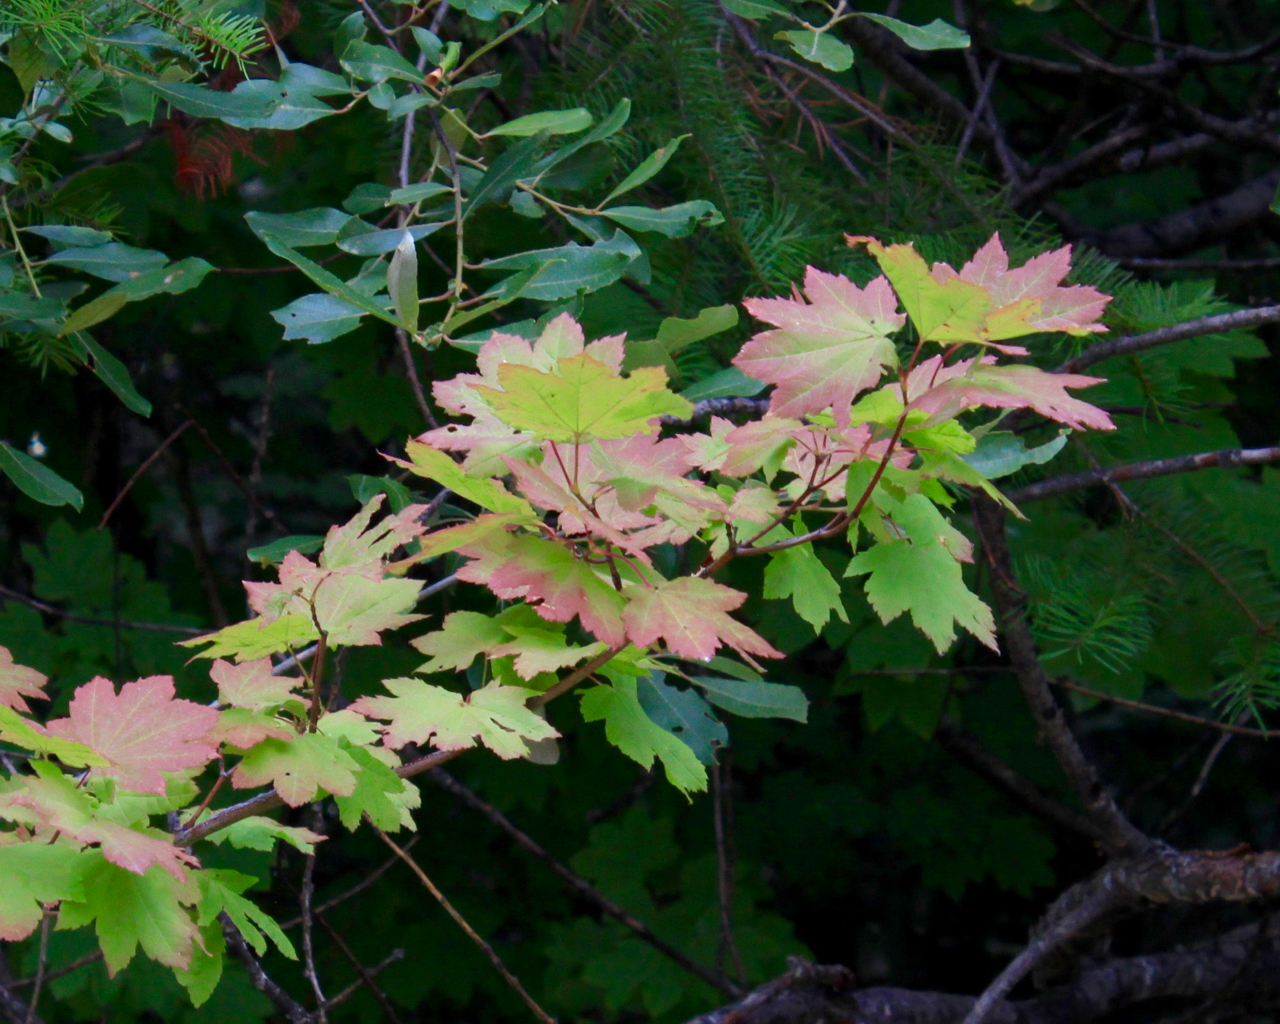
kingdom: Plantae
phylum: Tracheophyta
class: Magnoliopsida
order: Sapindales
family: Sapindaceae
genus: Acer
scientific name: Acer circinatum
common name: Vine maple
